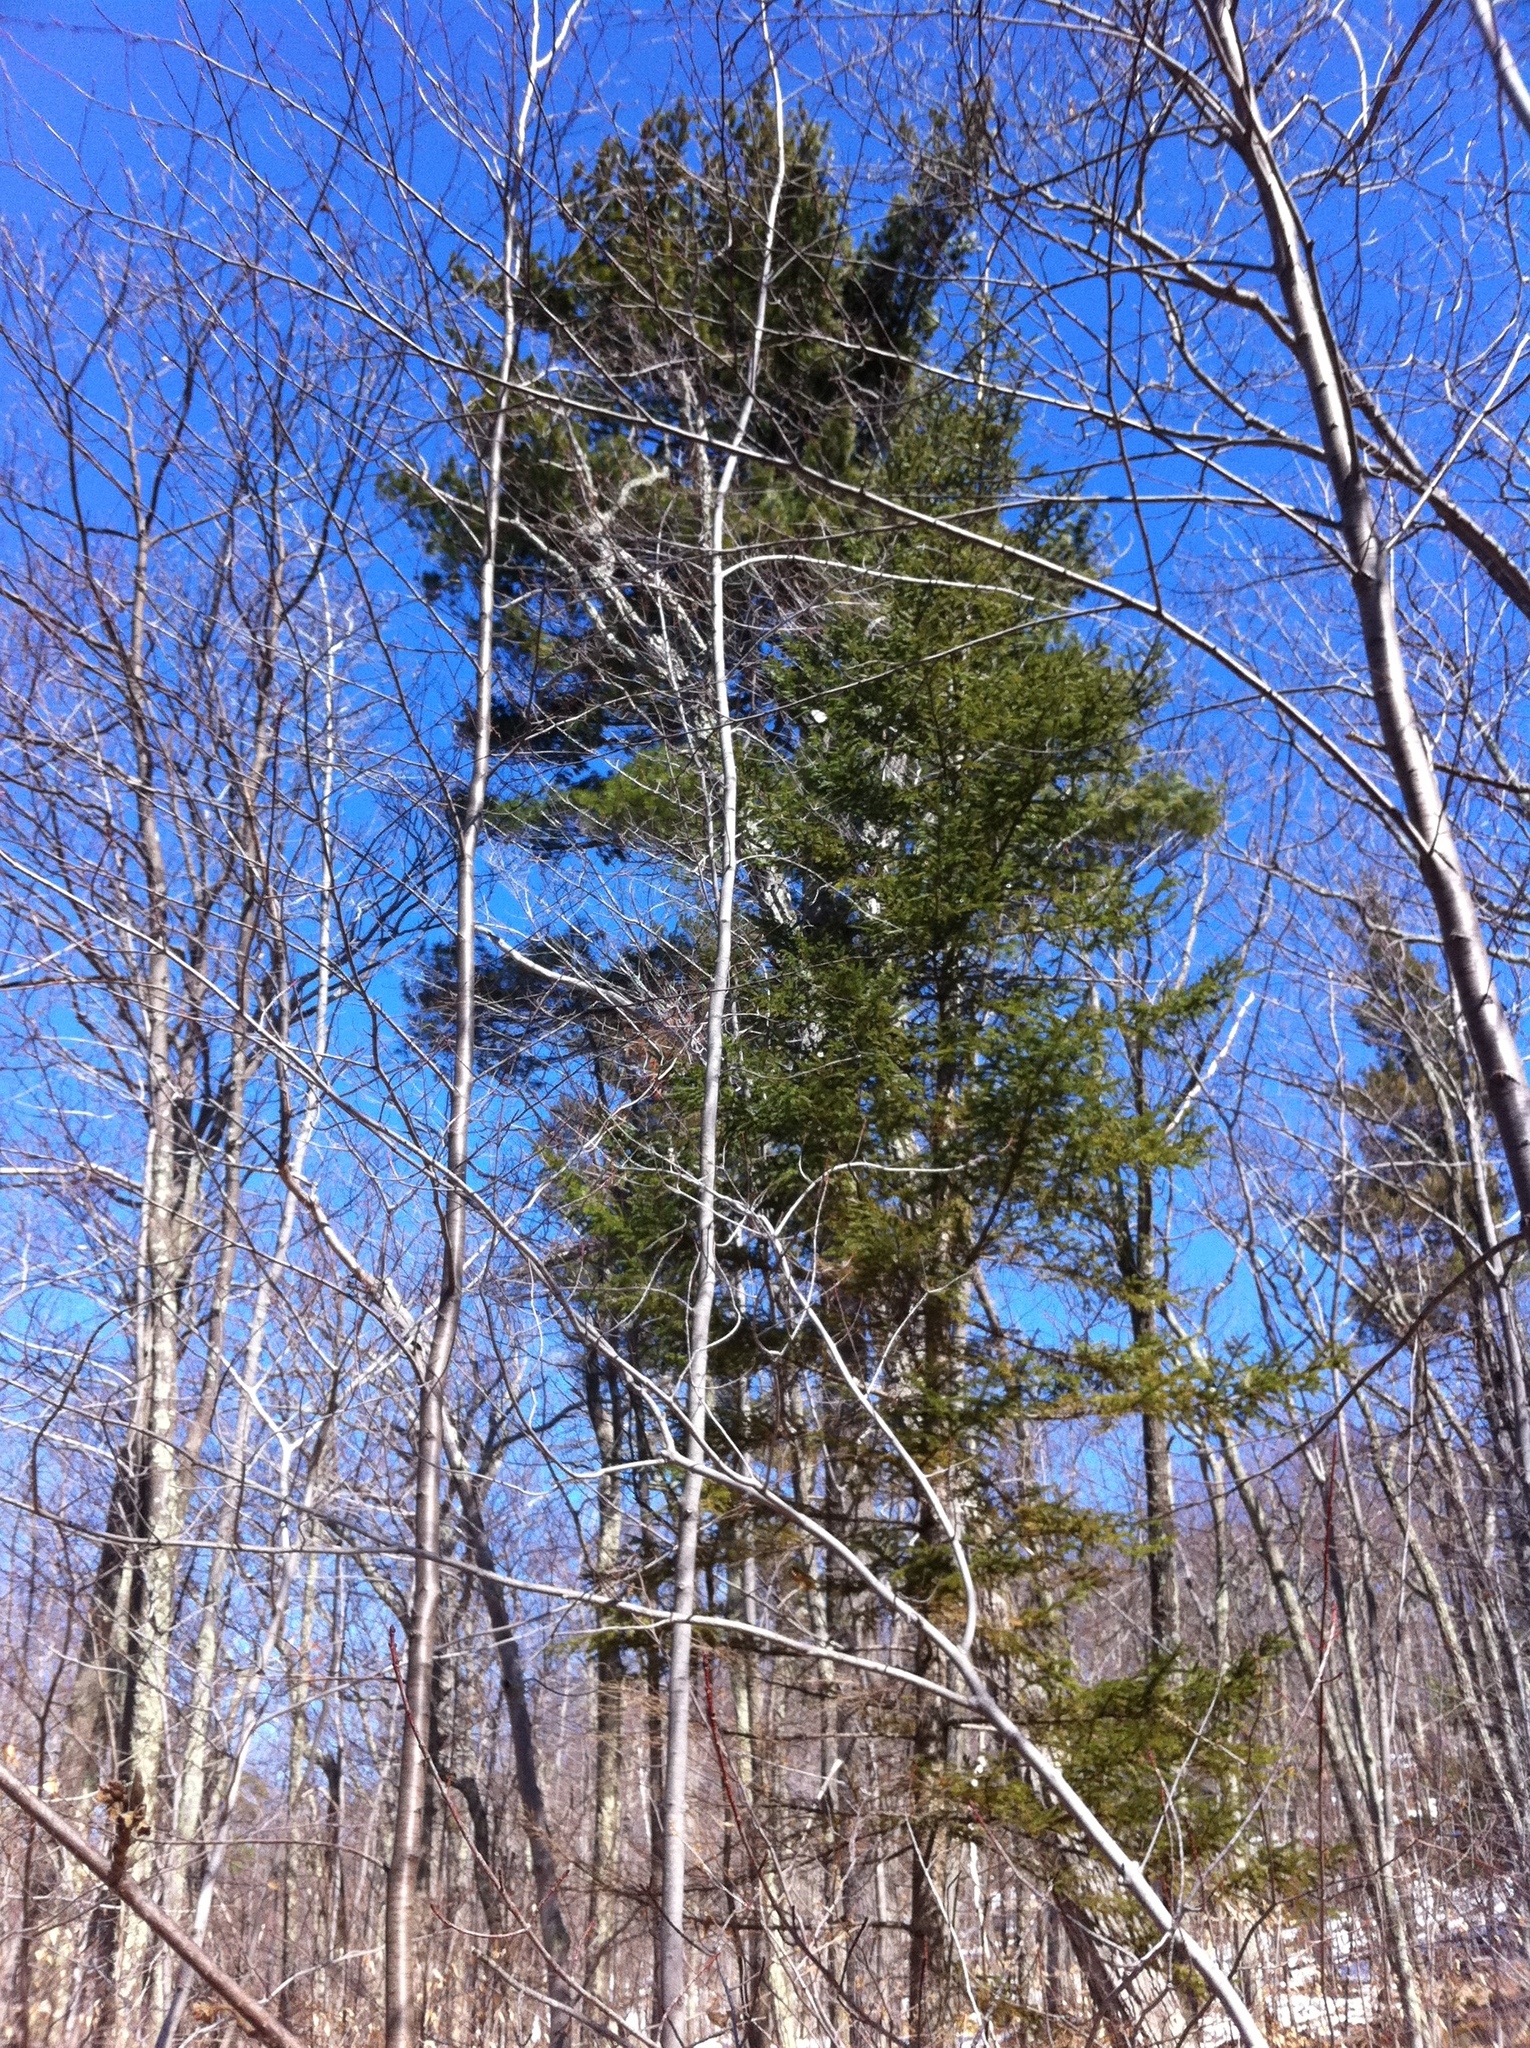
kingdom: Plantae
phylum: Tracheophyta
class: Pinopsida
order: Pinales
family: Pinaceae
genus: Picea
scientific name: Picea rubens
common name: Red spruce
